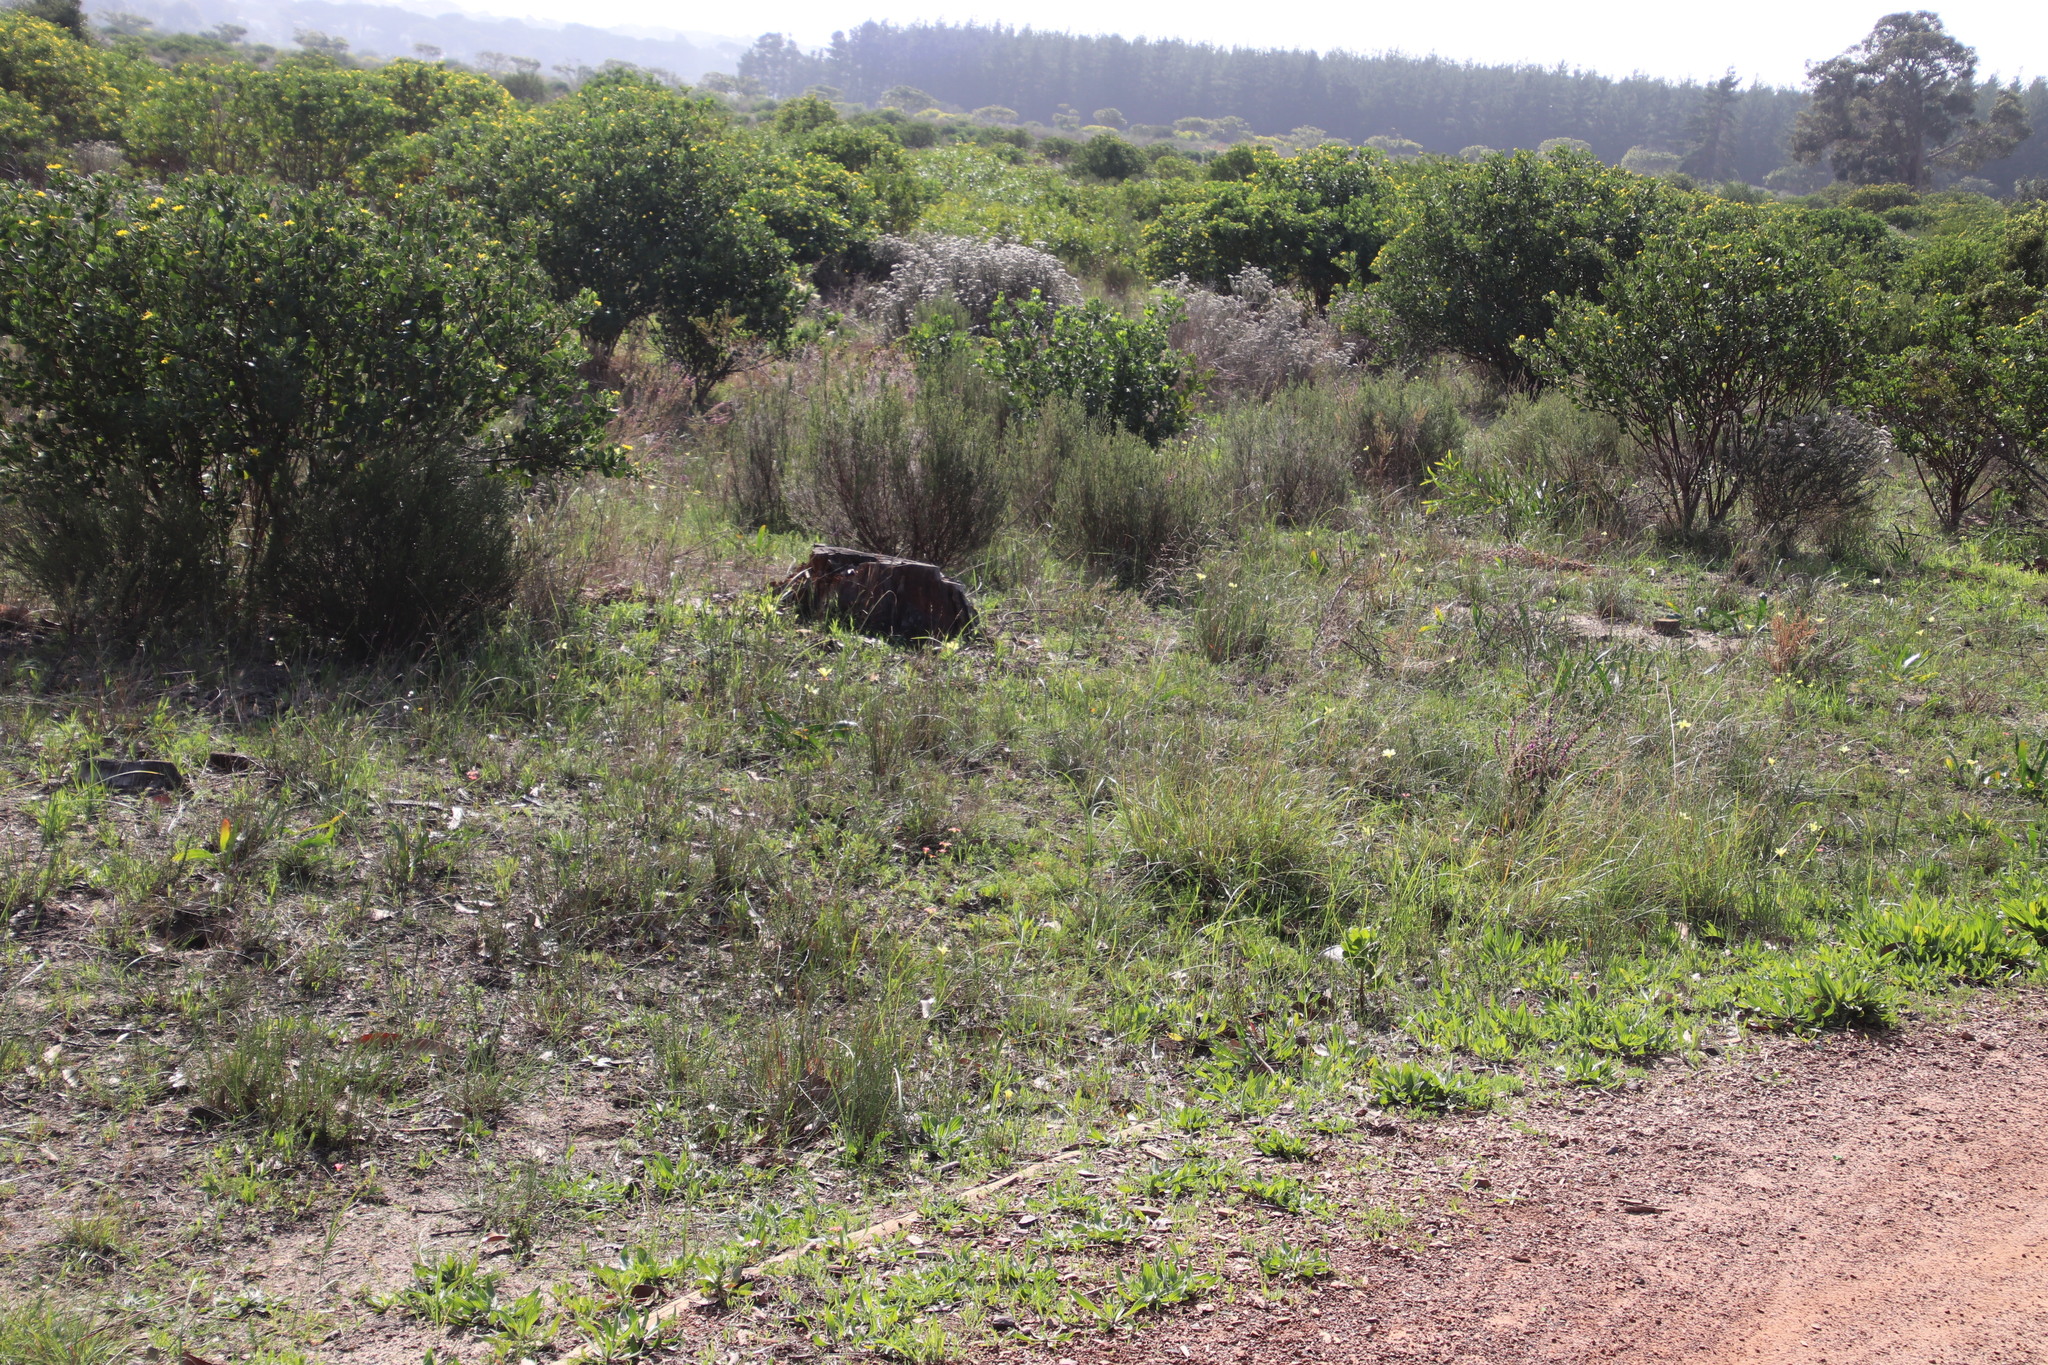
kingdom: Plantae
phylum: Tracheophyta
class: Liliopsida
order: Asparagales
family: Iridaceae
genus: Moraea
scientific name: Moraea collina
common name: Cape-tulip
